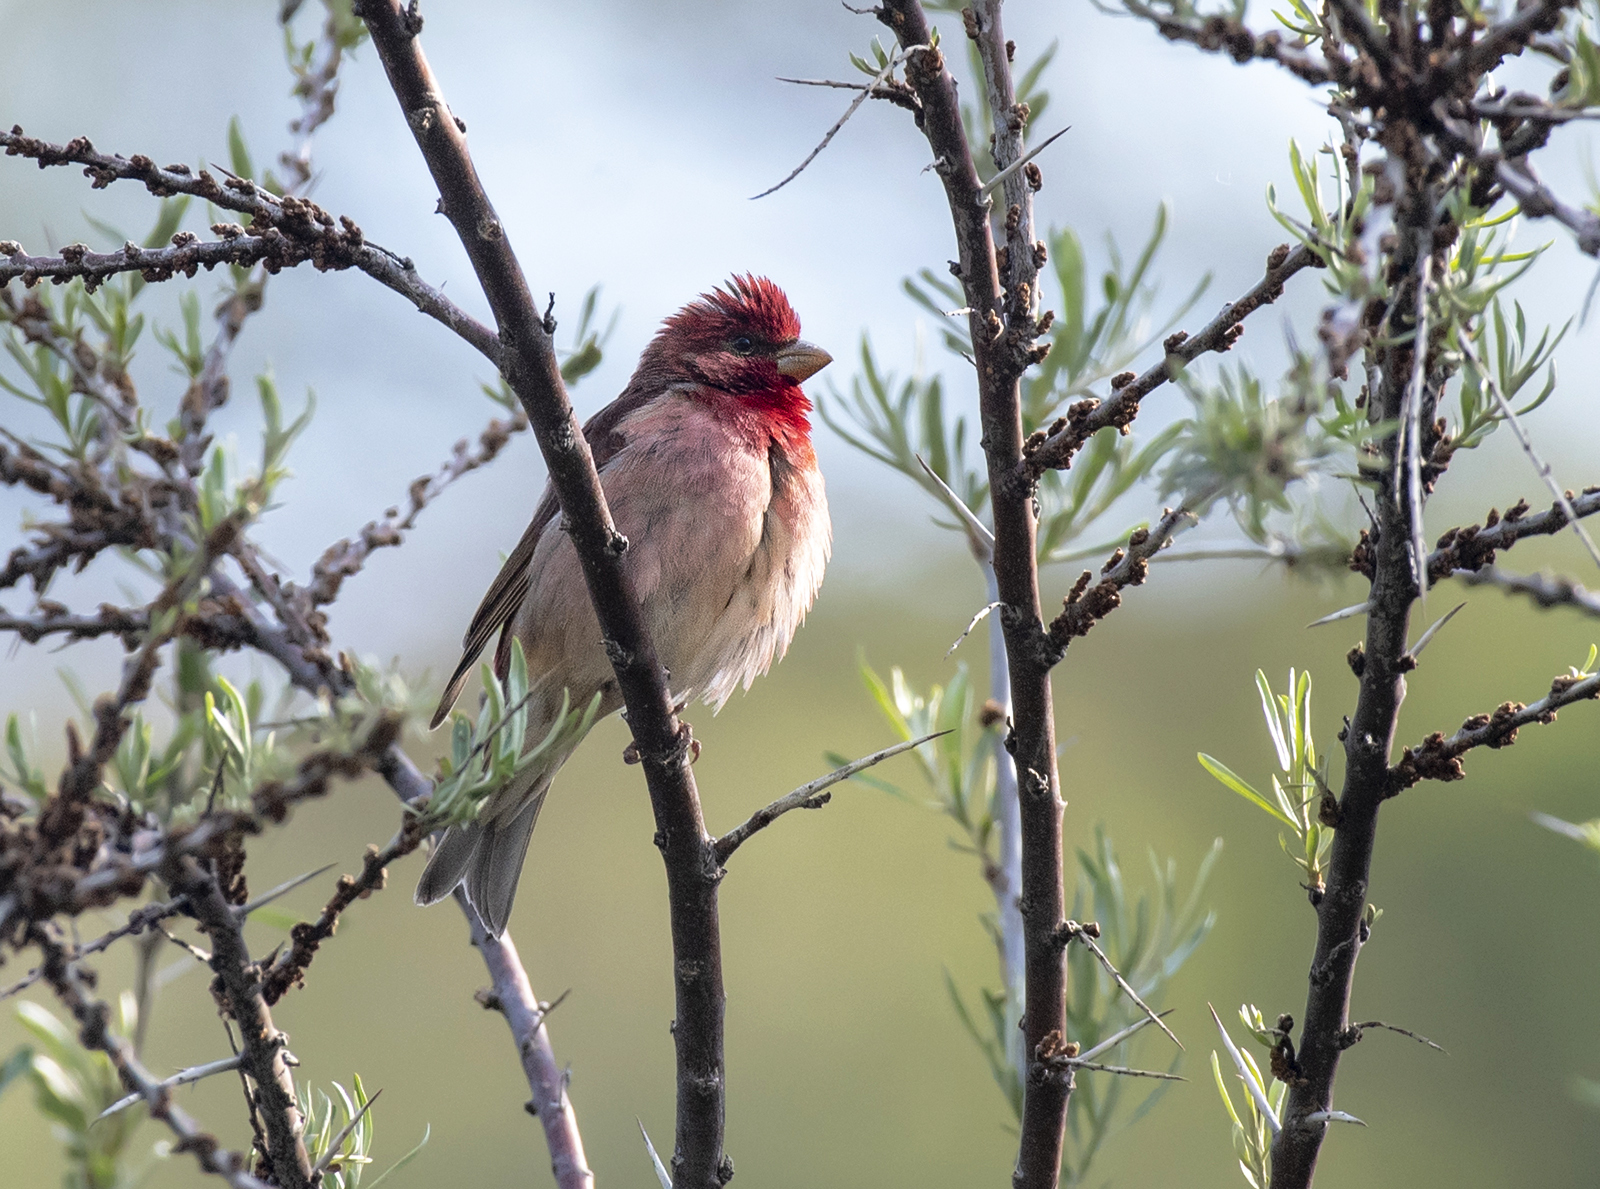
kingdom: Animalia
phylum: Chordata
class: Aves
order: Passeriformes
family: Fringillidae
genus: Carpodacus
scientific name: Carpodacus erythrinus
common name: Common rosefinch
